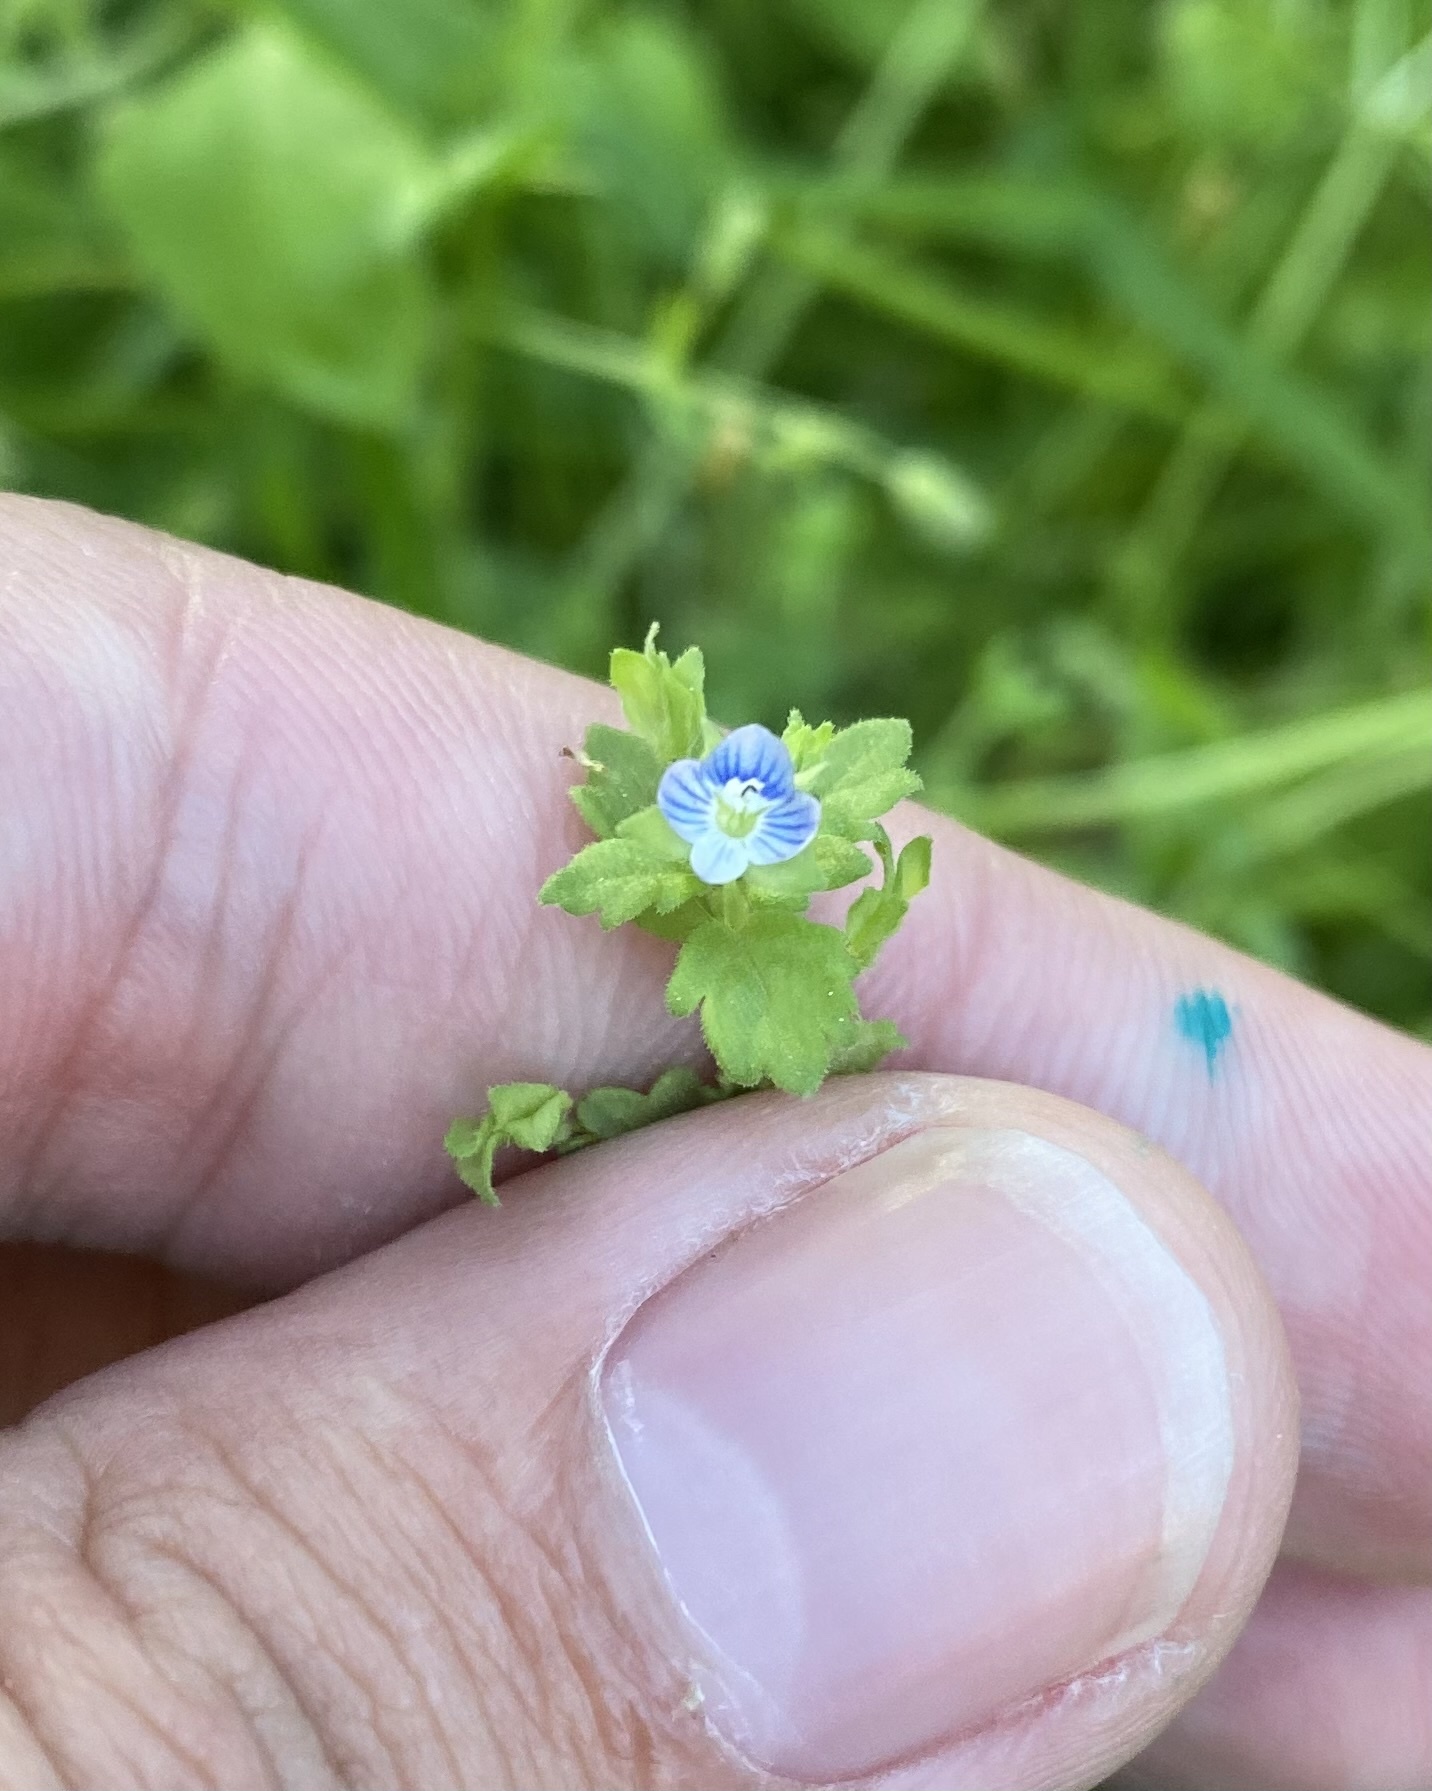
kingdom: Plantae
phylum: Tracheophyta
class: Magnoliopsida
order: Lamiales
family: Plantaginaceae
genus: Veronica
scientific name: Veronica polita
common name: Grey field-speedwell
